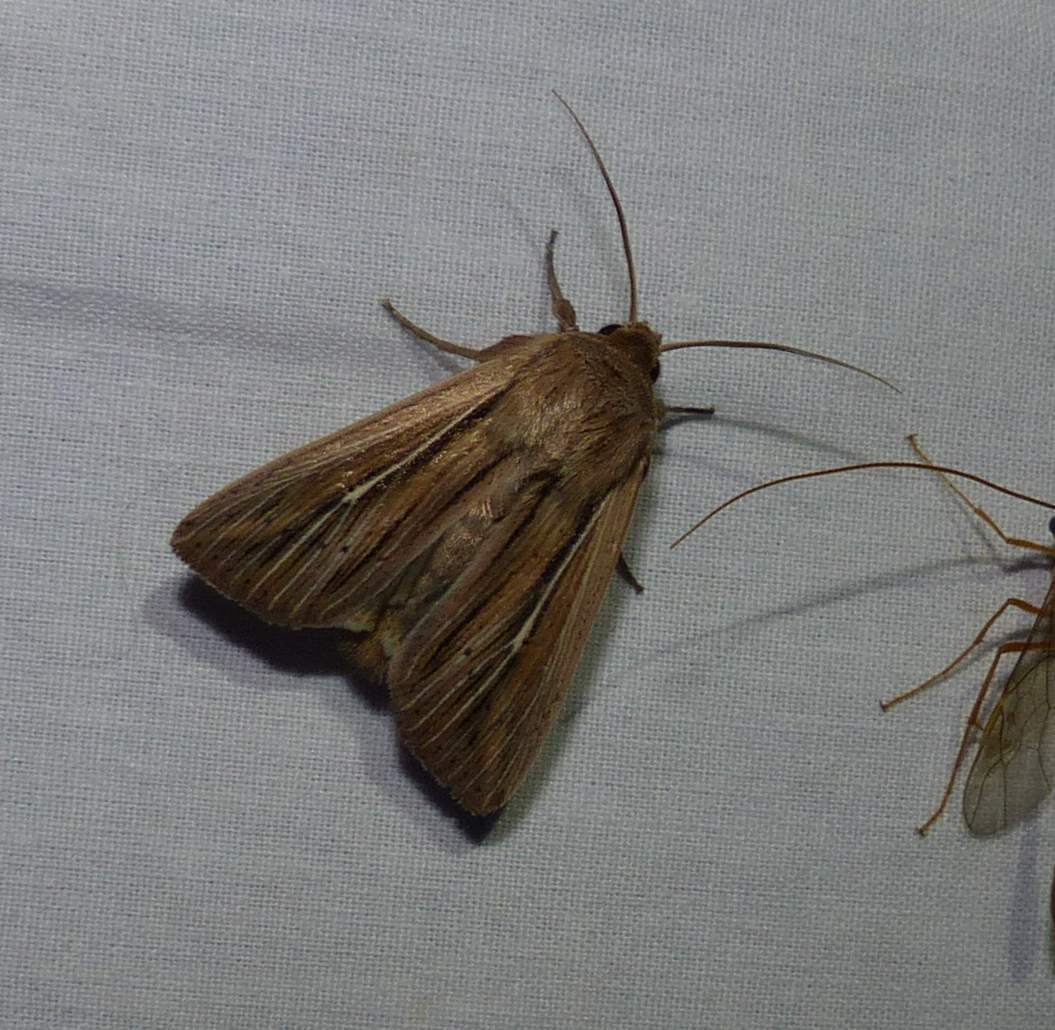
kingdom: Animalia
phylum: Arthropoda
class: Insecta
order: Lepidoptera
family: Noctuidae
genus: Leucania
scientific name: Leucania commoides
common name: Two-lined wainscot
